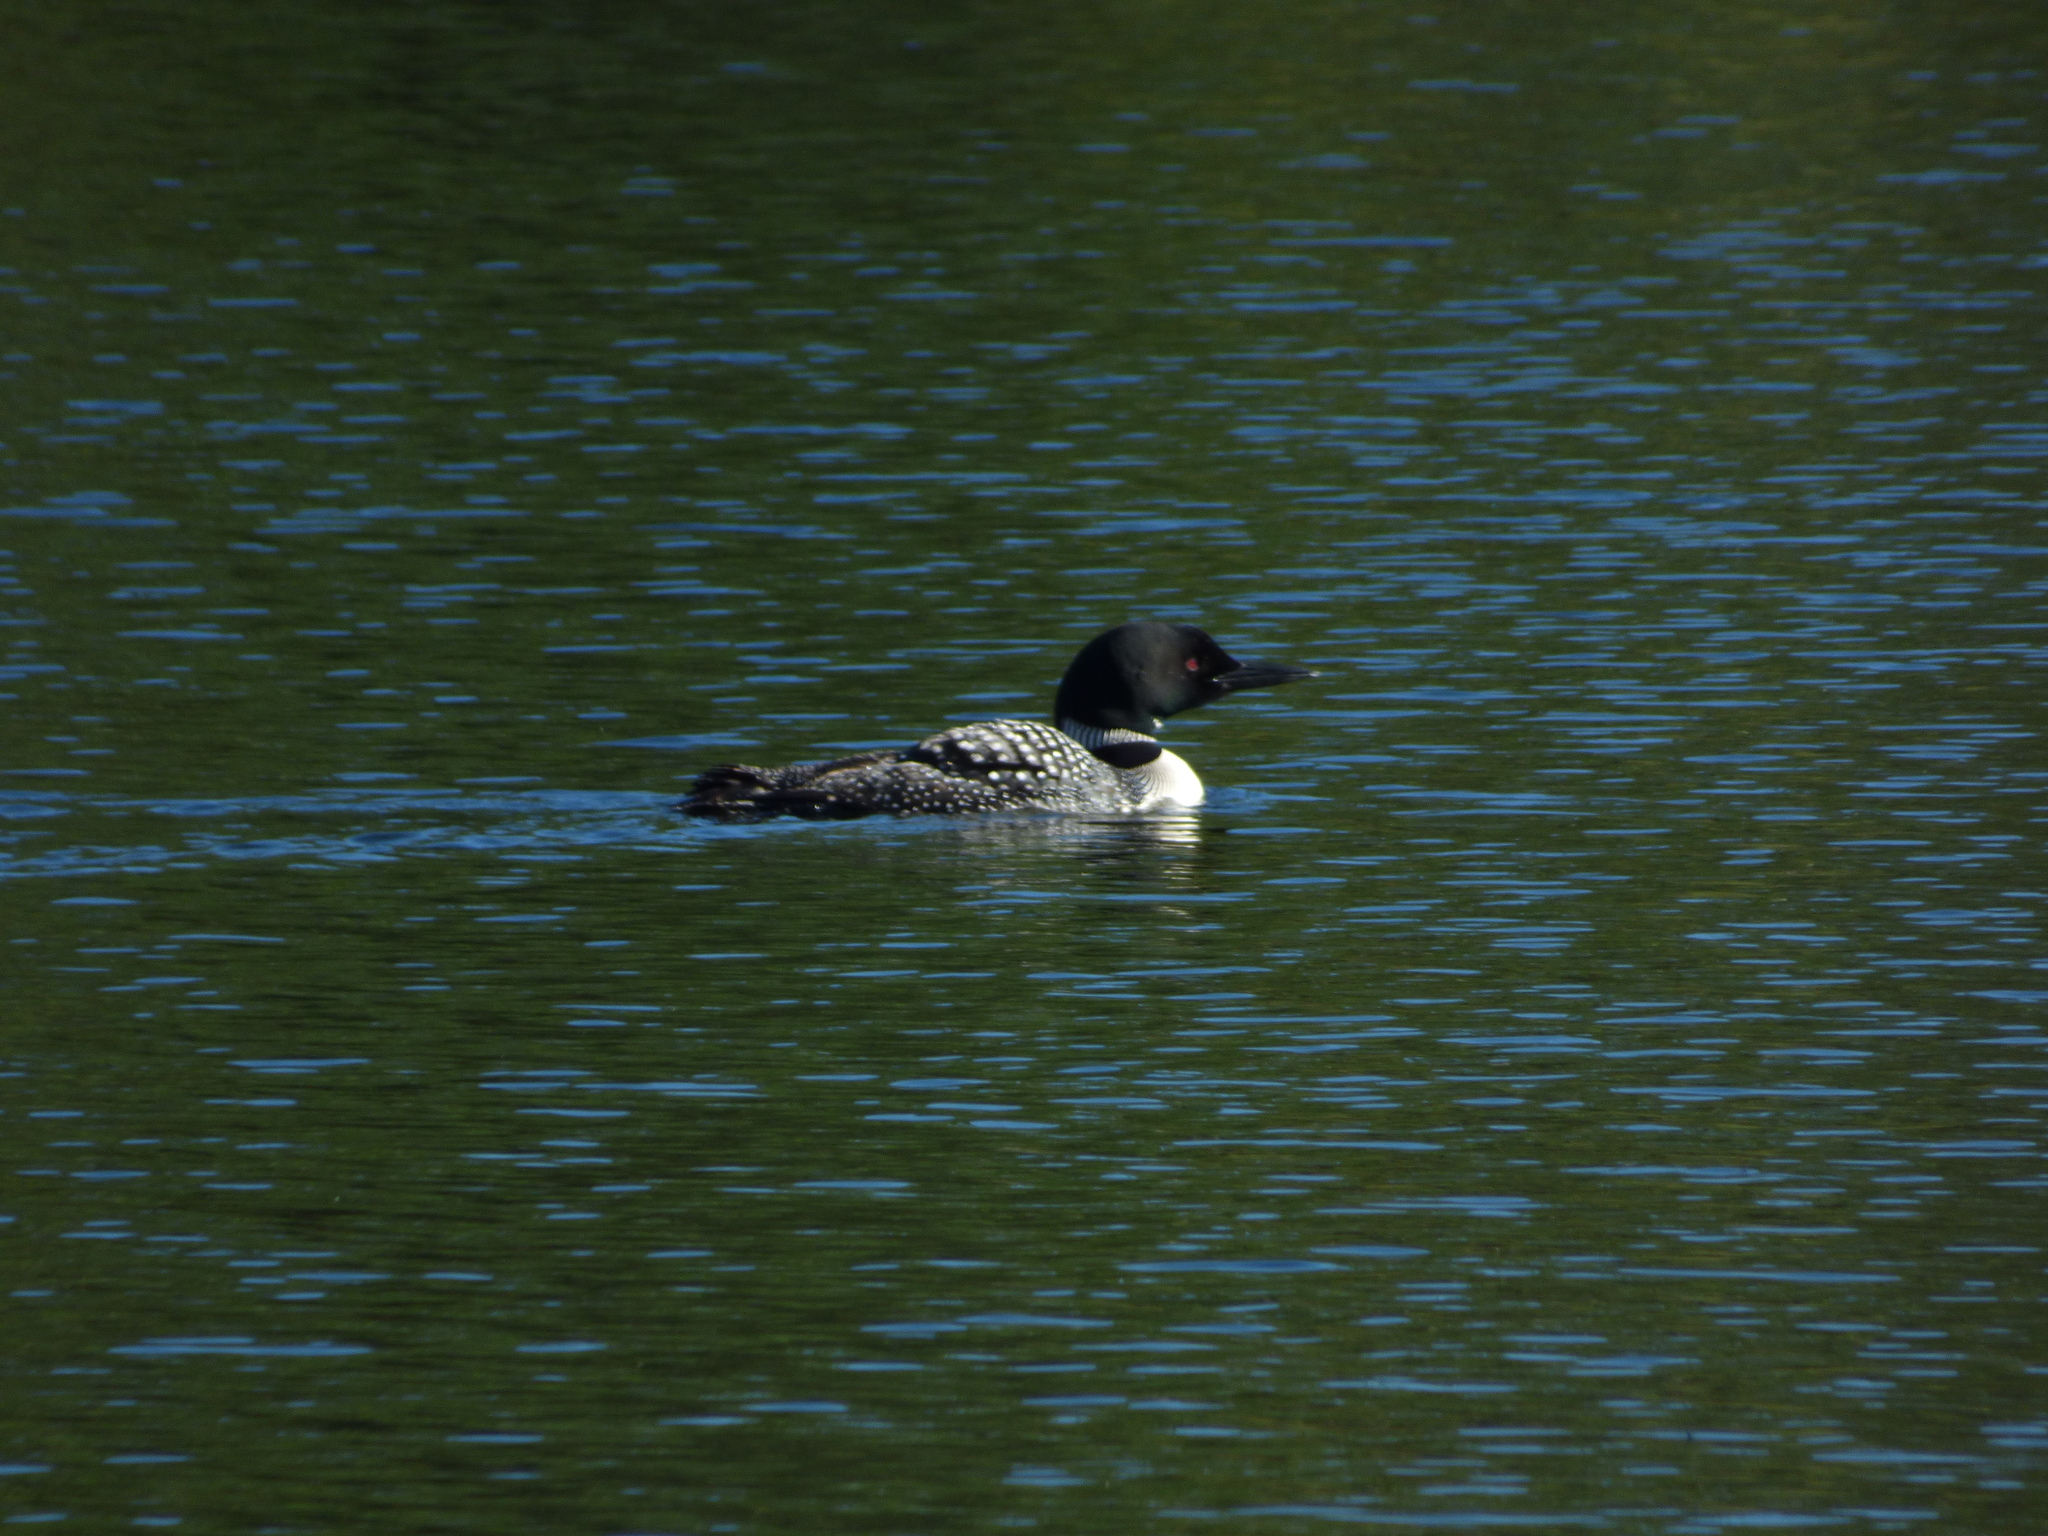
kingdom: Animalia
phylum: Chordata
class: Aves
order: Gaviiformes
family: Gaviidae
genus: Gavia
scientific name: Gavia immer
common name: Common loon
